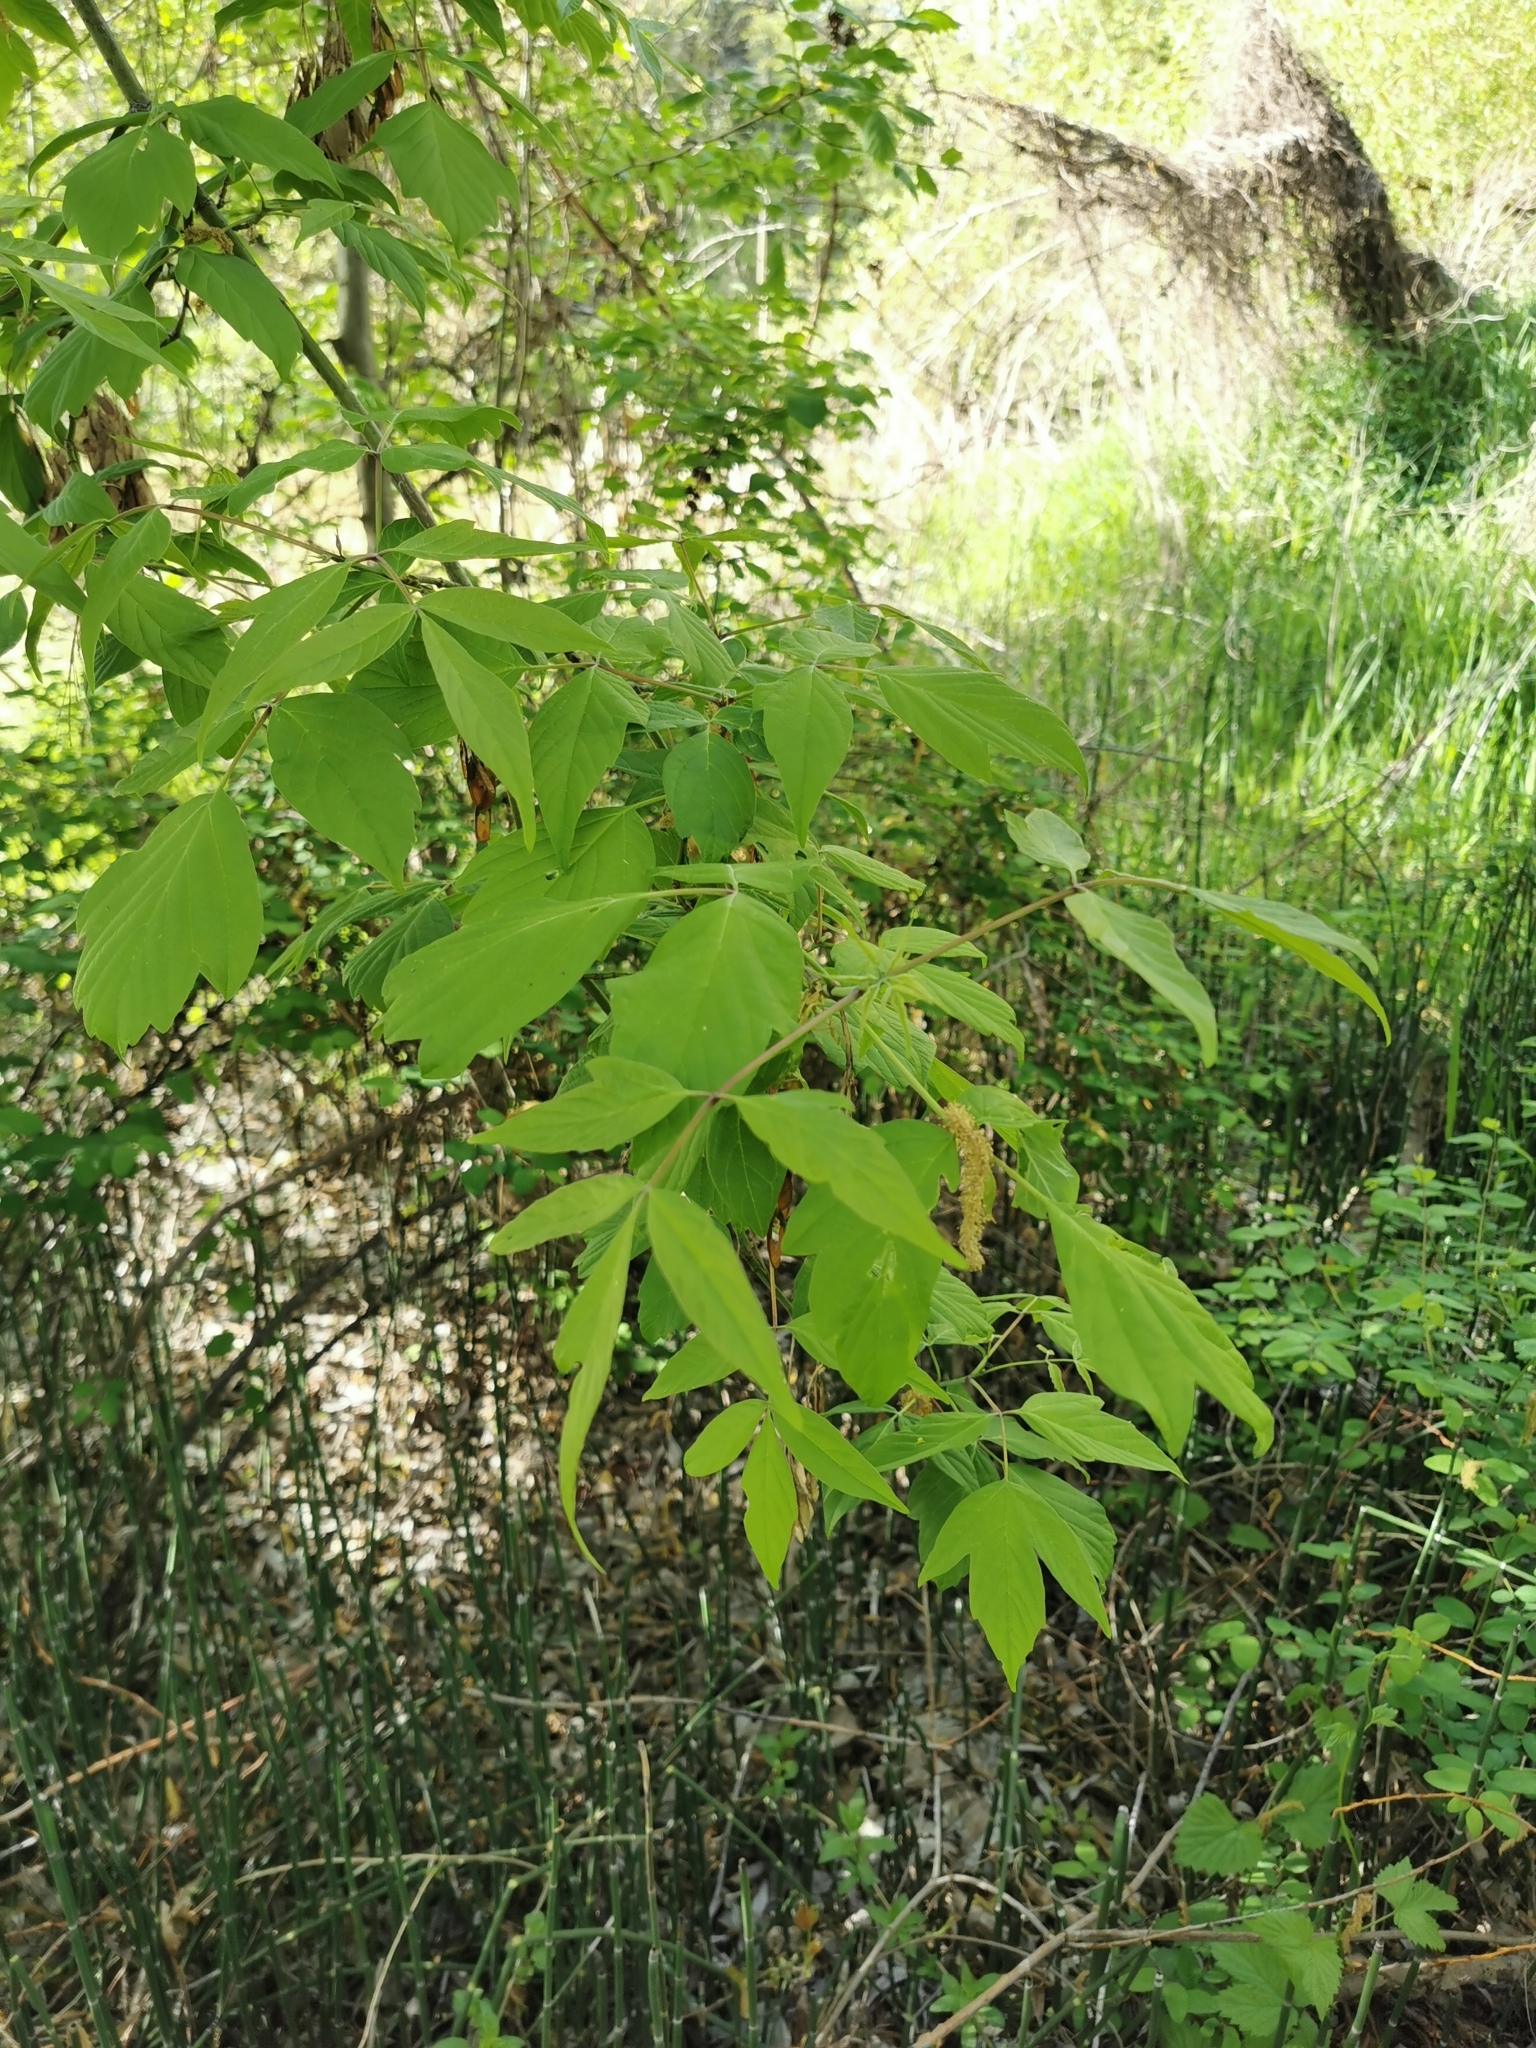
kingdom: Plantae
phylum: Tracheophyta
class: Magnoliopsida
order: Sapindales
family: Sapindaceae
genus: Acer
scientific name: Acer negundo
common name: Ashleaf maple
